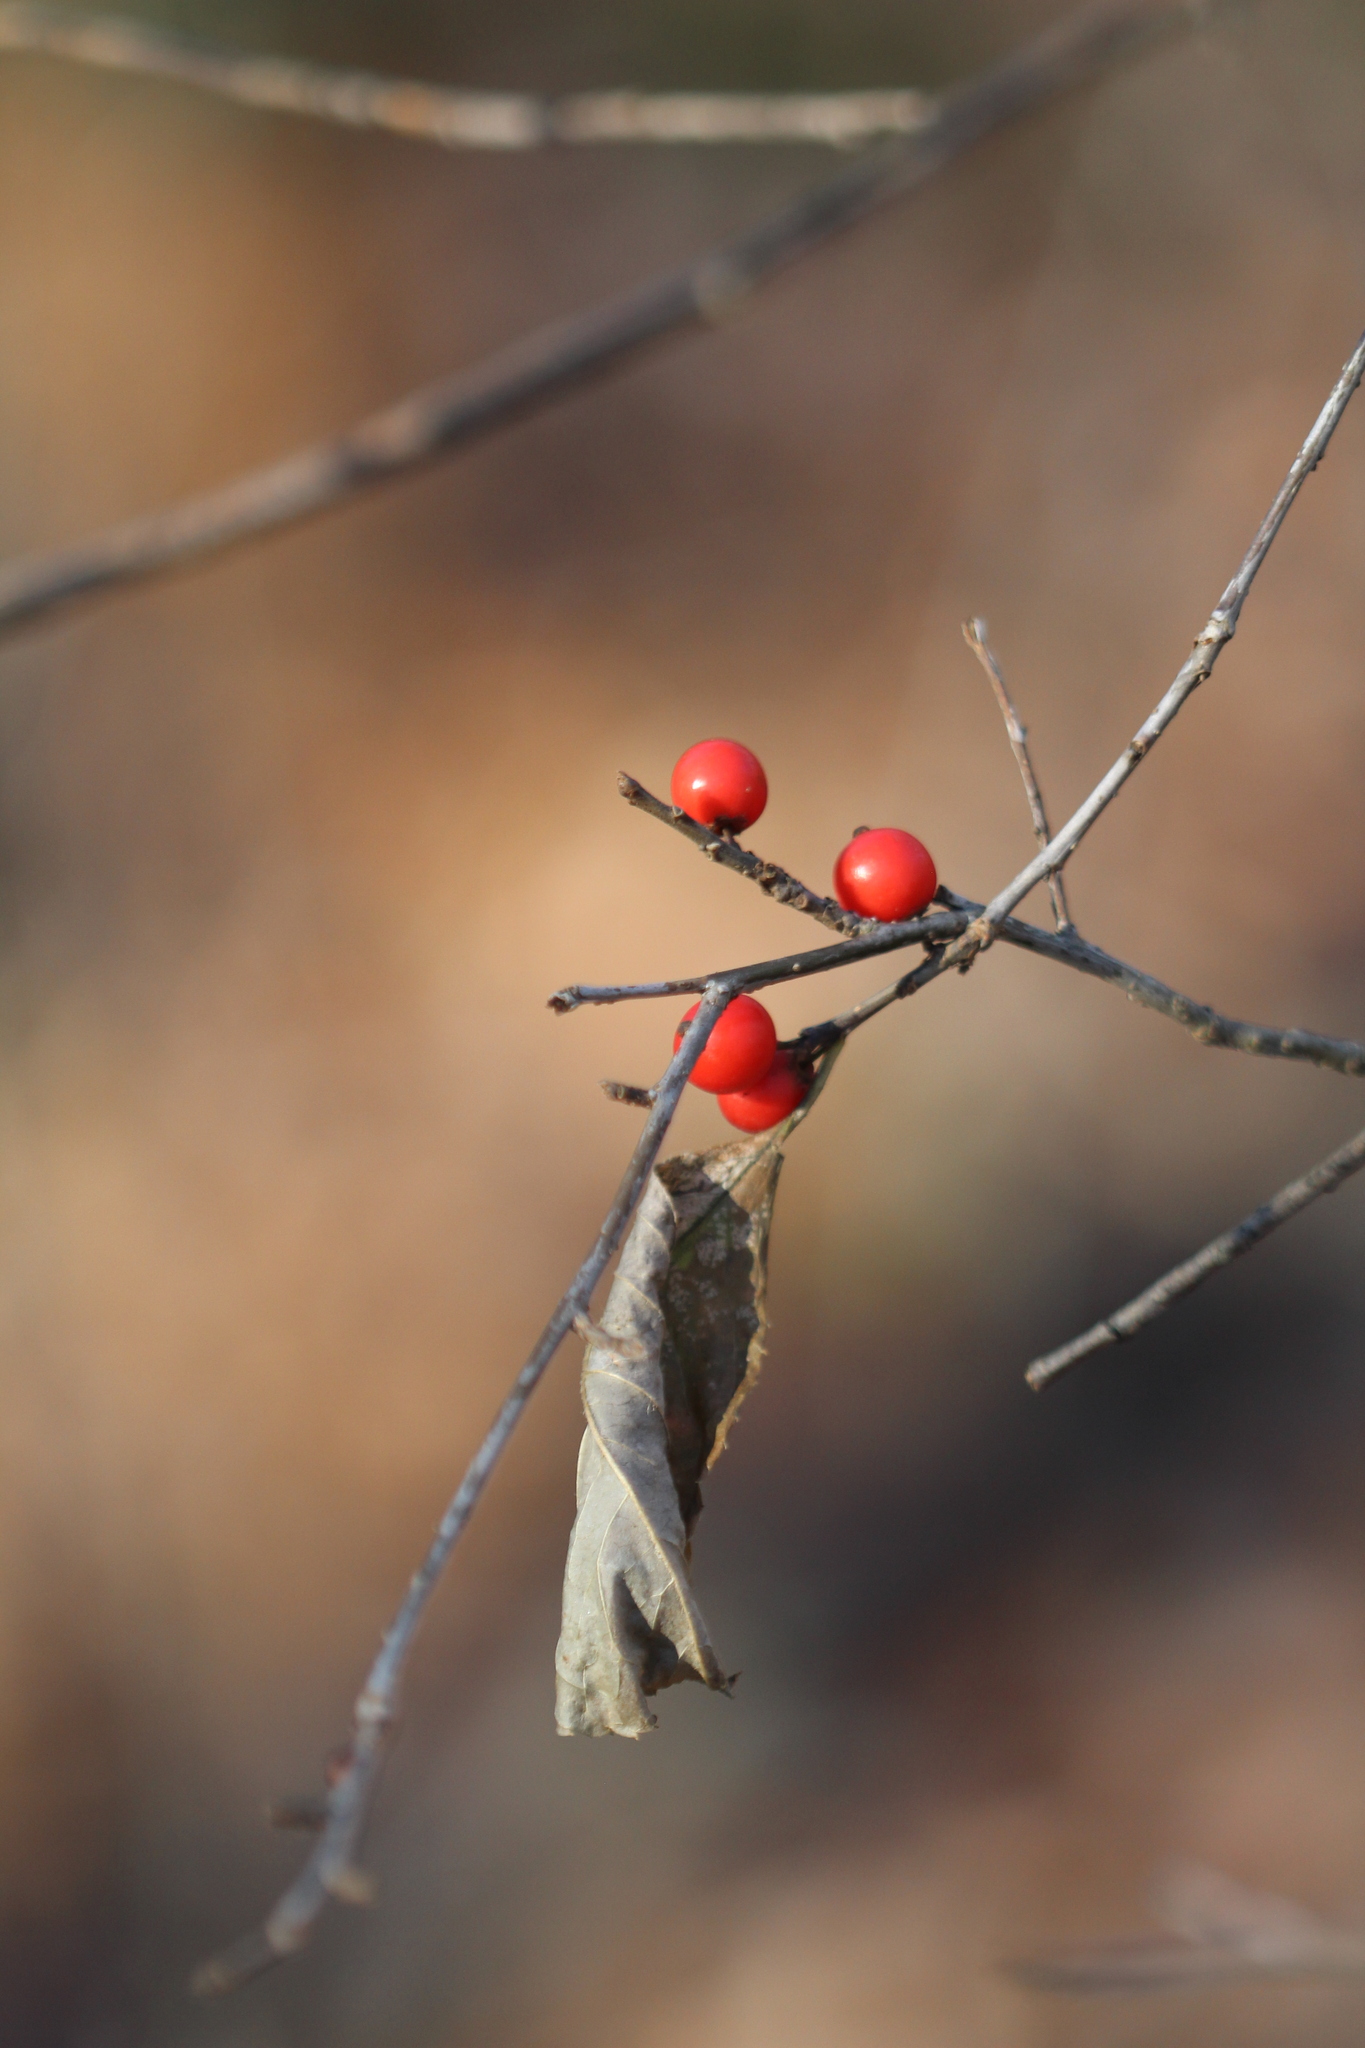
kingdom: Plantae
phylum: Tracheophyta
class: Magnoliopsida
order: Aquifoliales
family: Aquifoliaceae
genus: Ilex
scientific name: Ilex verticillata
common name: Virginia winterberry
